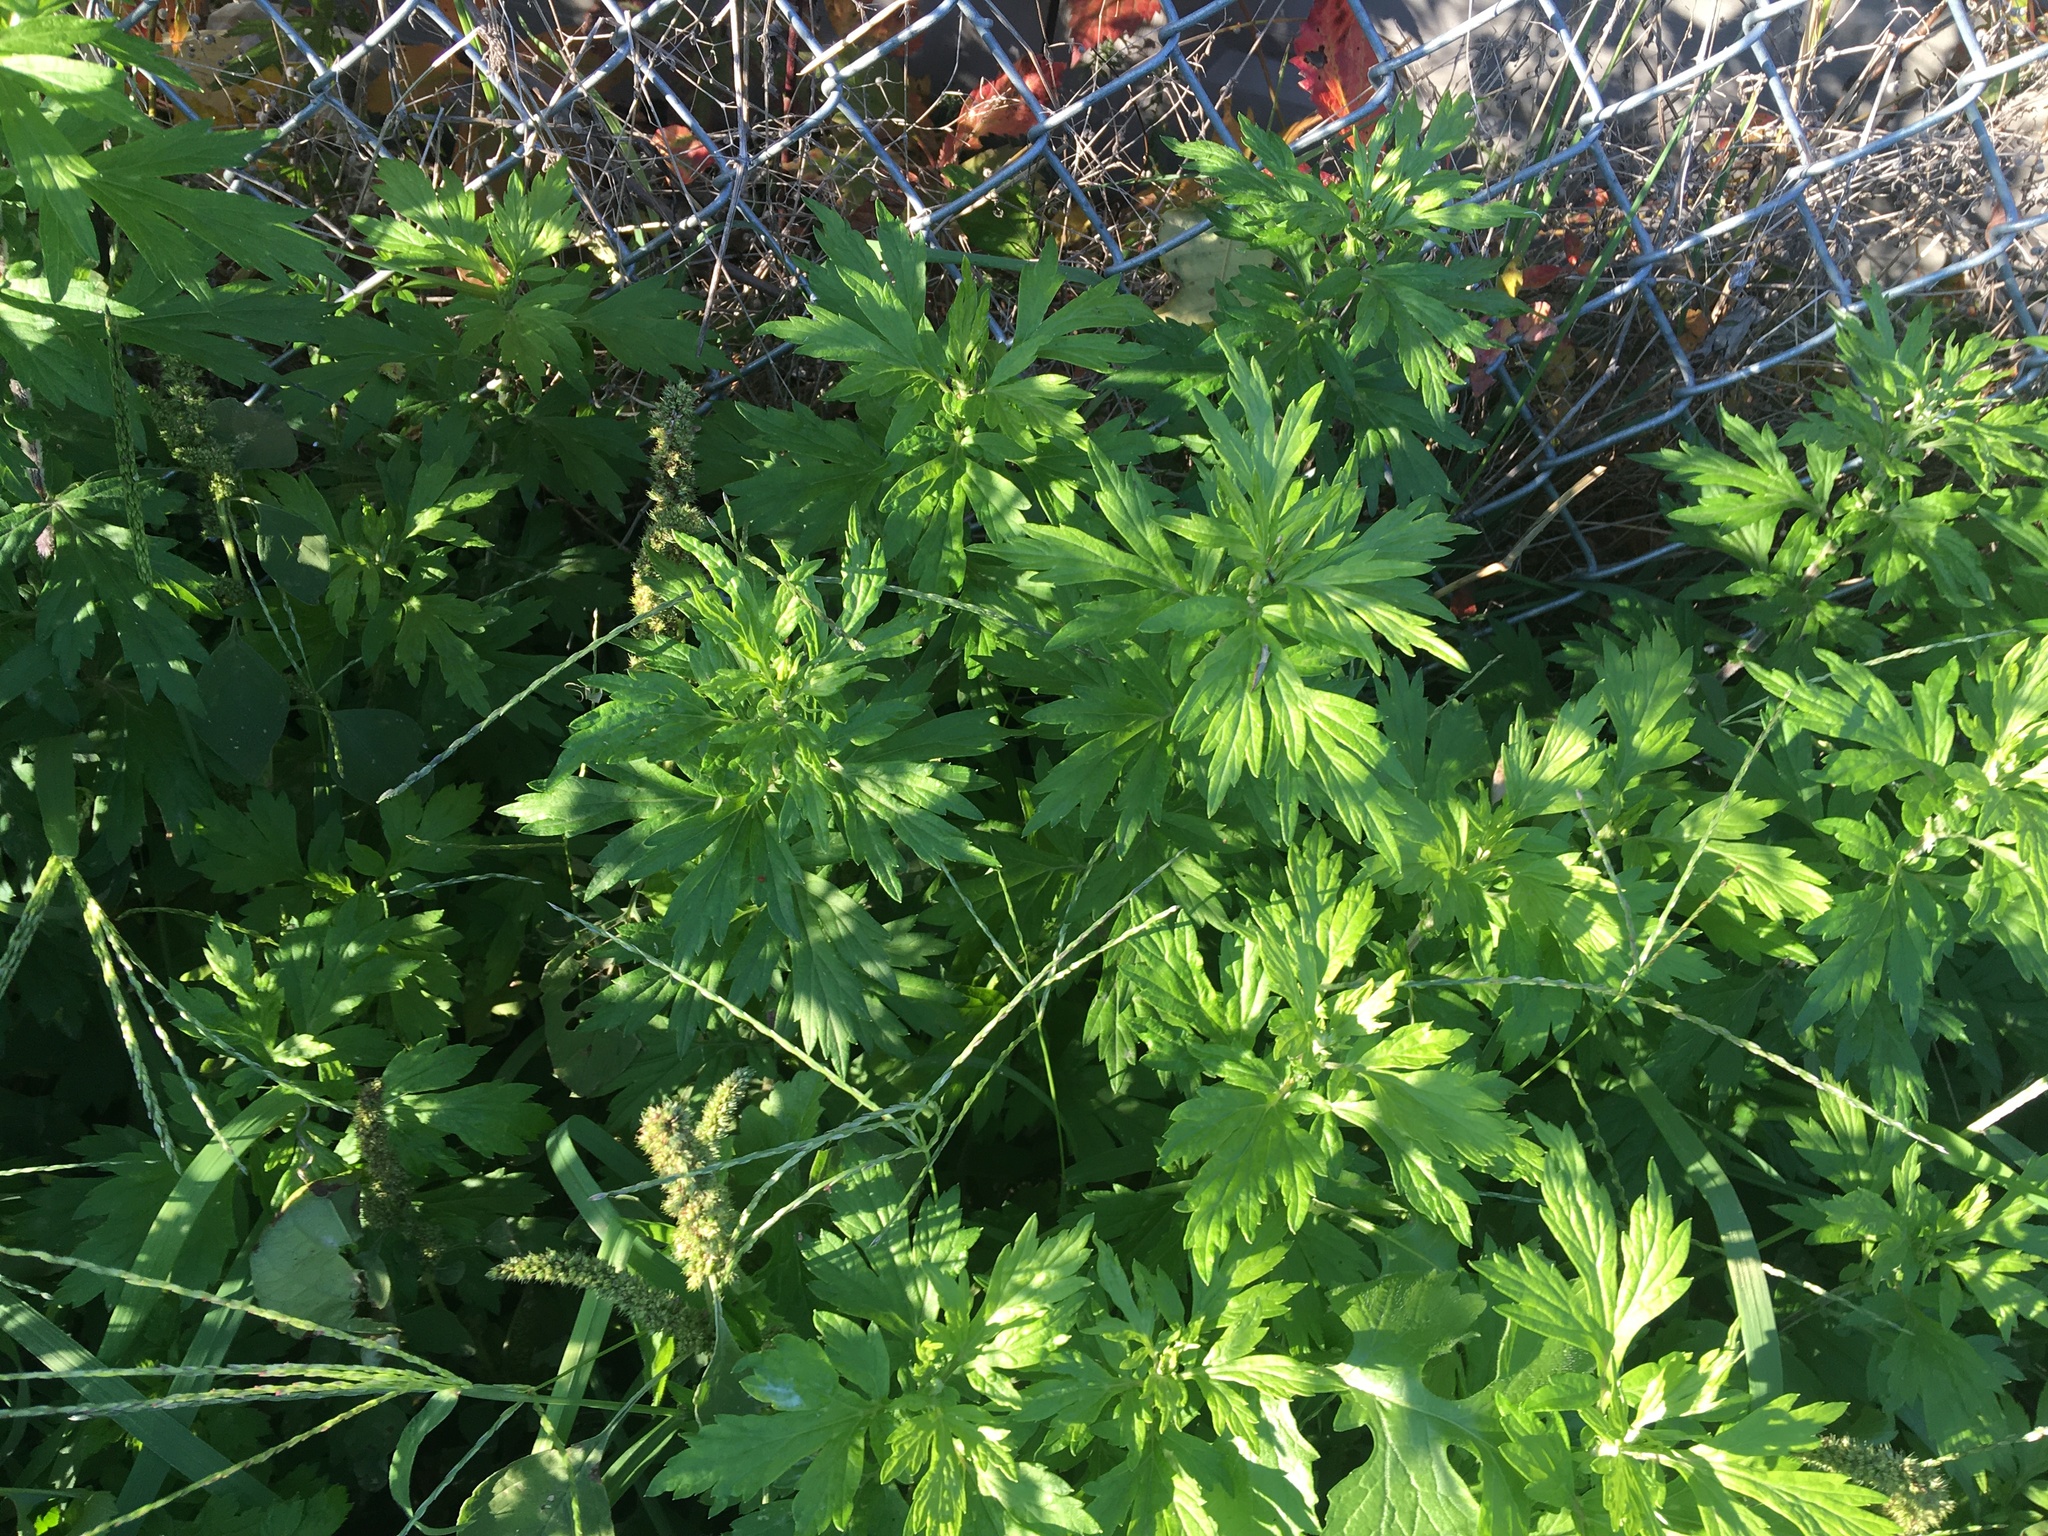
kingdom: Plantae
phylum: Tracheophyta
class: Magnoliopsida
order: Asterales
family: Asteraceae
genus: Artemisia
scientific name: Artemisia vulgaris
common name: Mugwort
